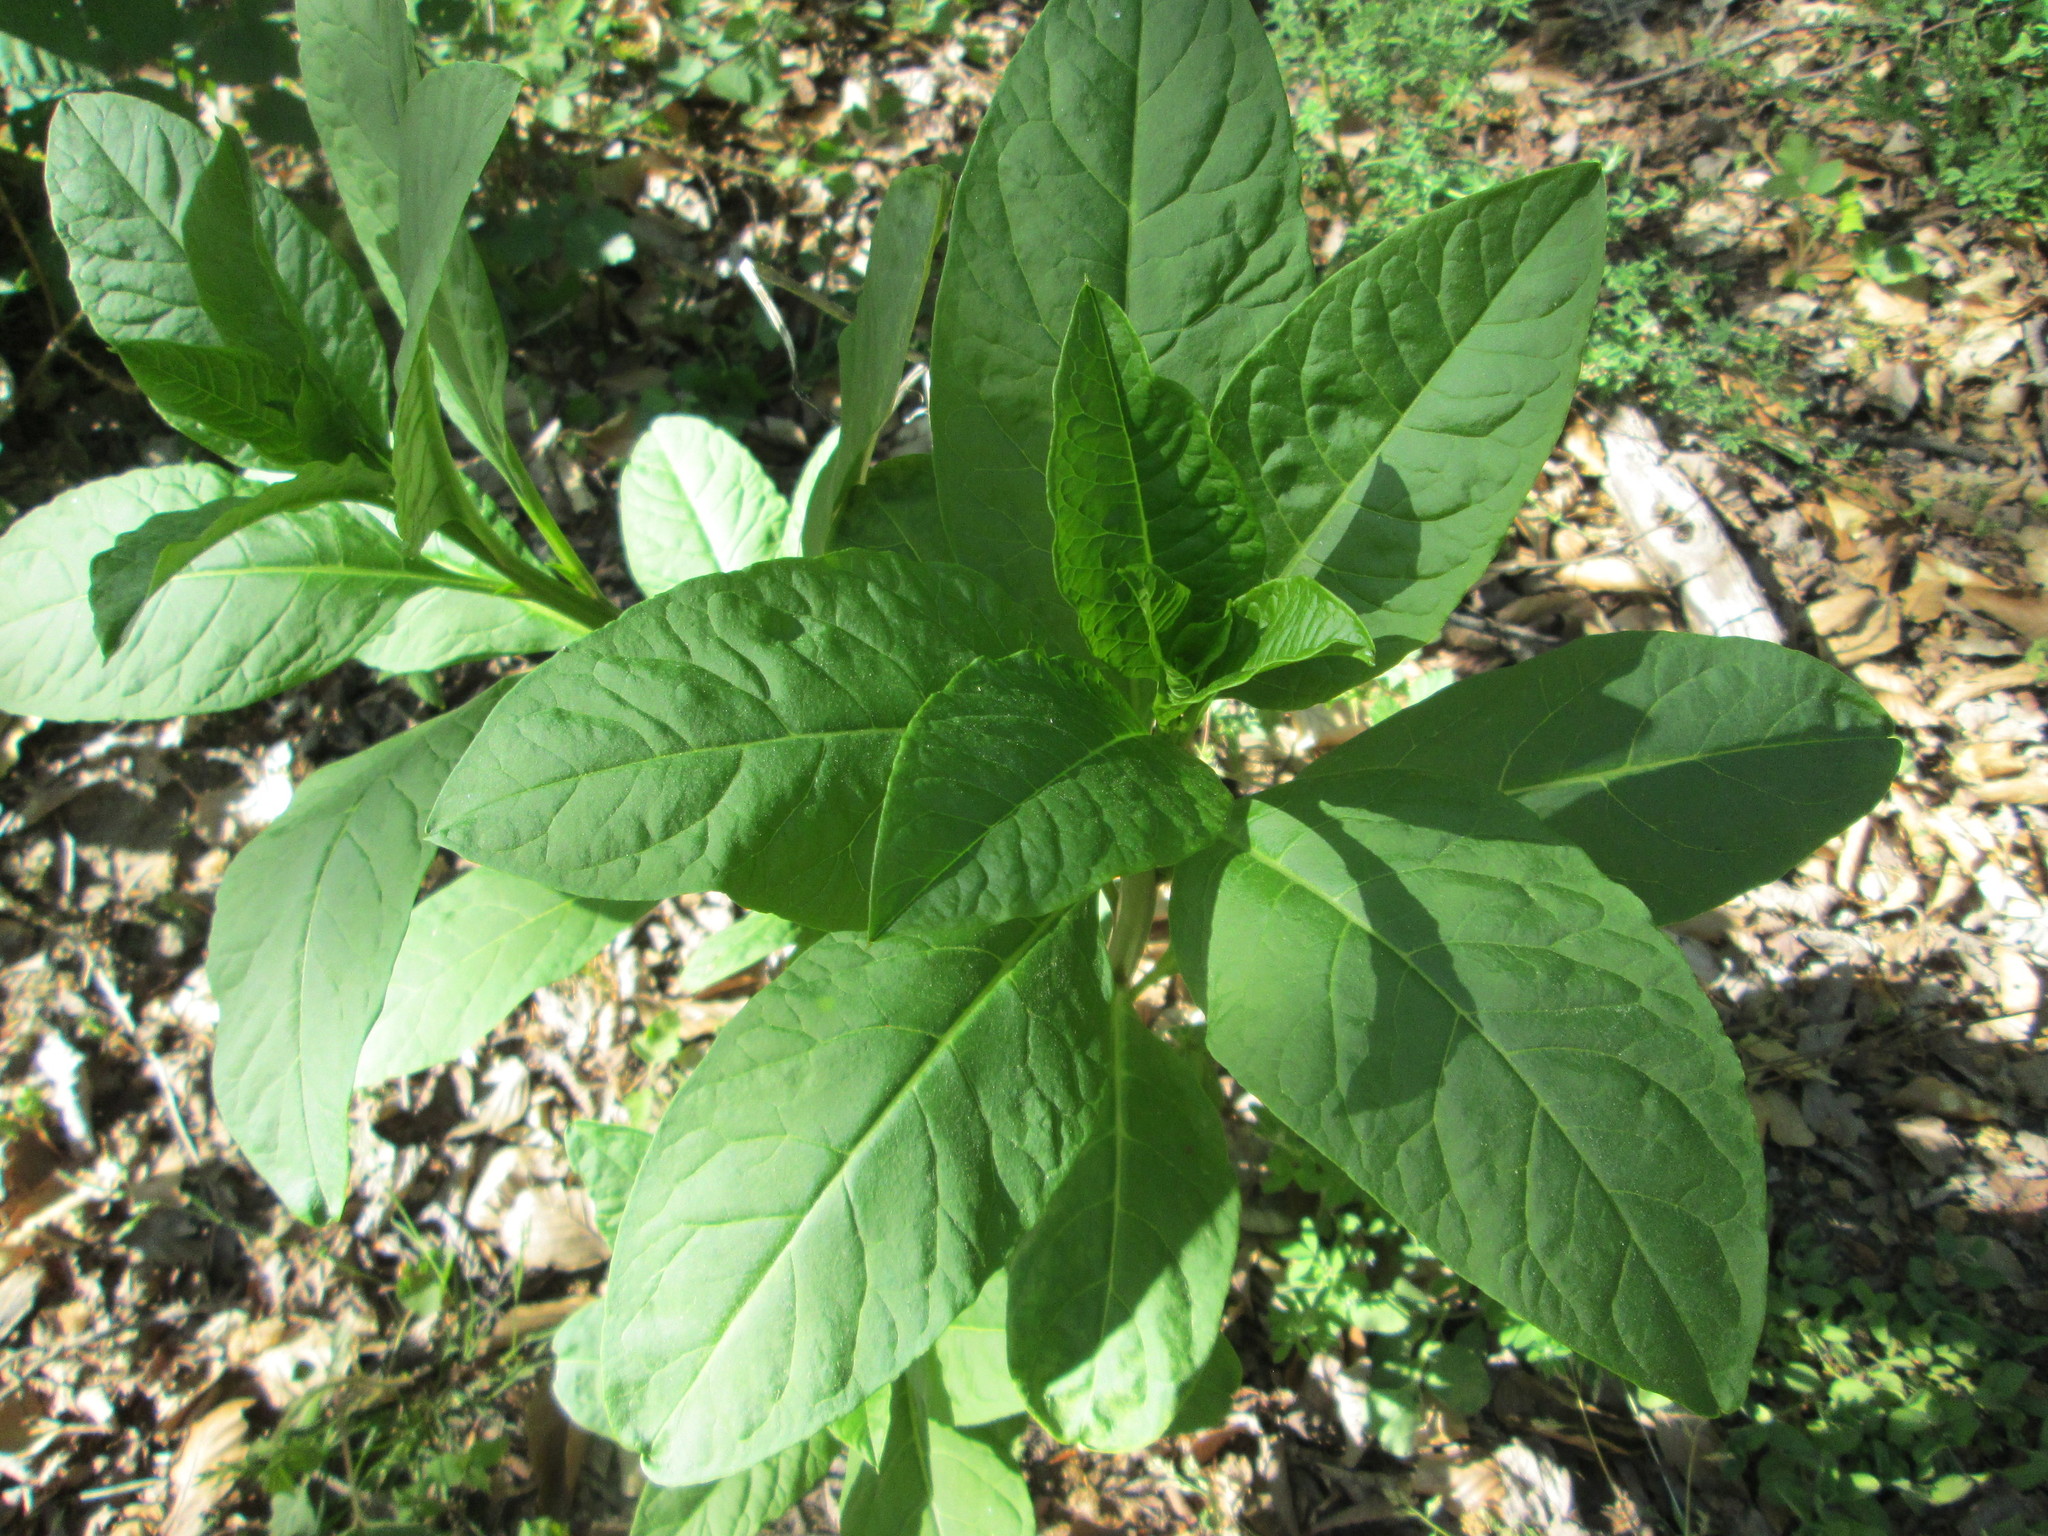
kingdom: Plantae
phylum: Tracheophyta
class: Magnoliopsida
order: Caryophyllales
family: Phytolaccaceae
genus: Phytolacca
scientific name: Phytolacca americana
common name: American pokeweed
